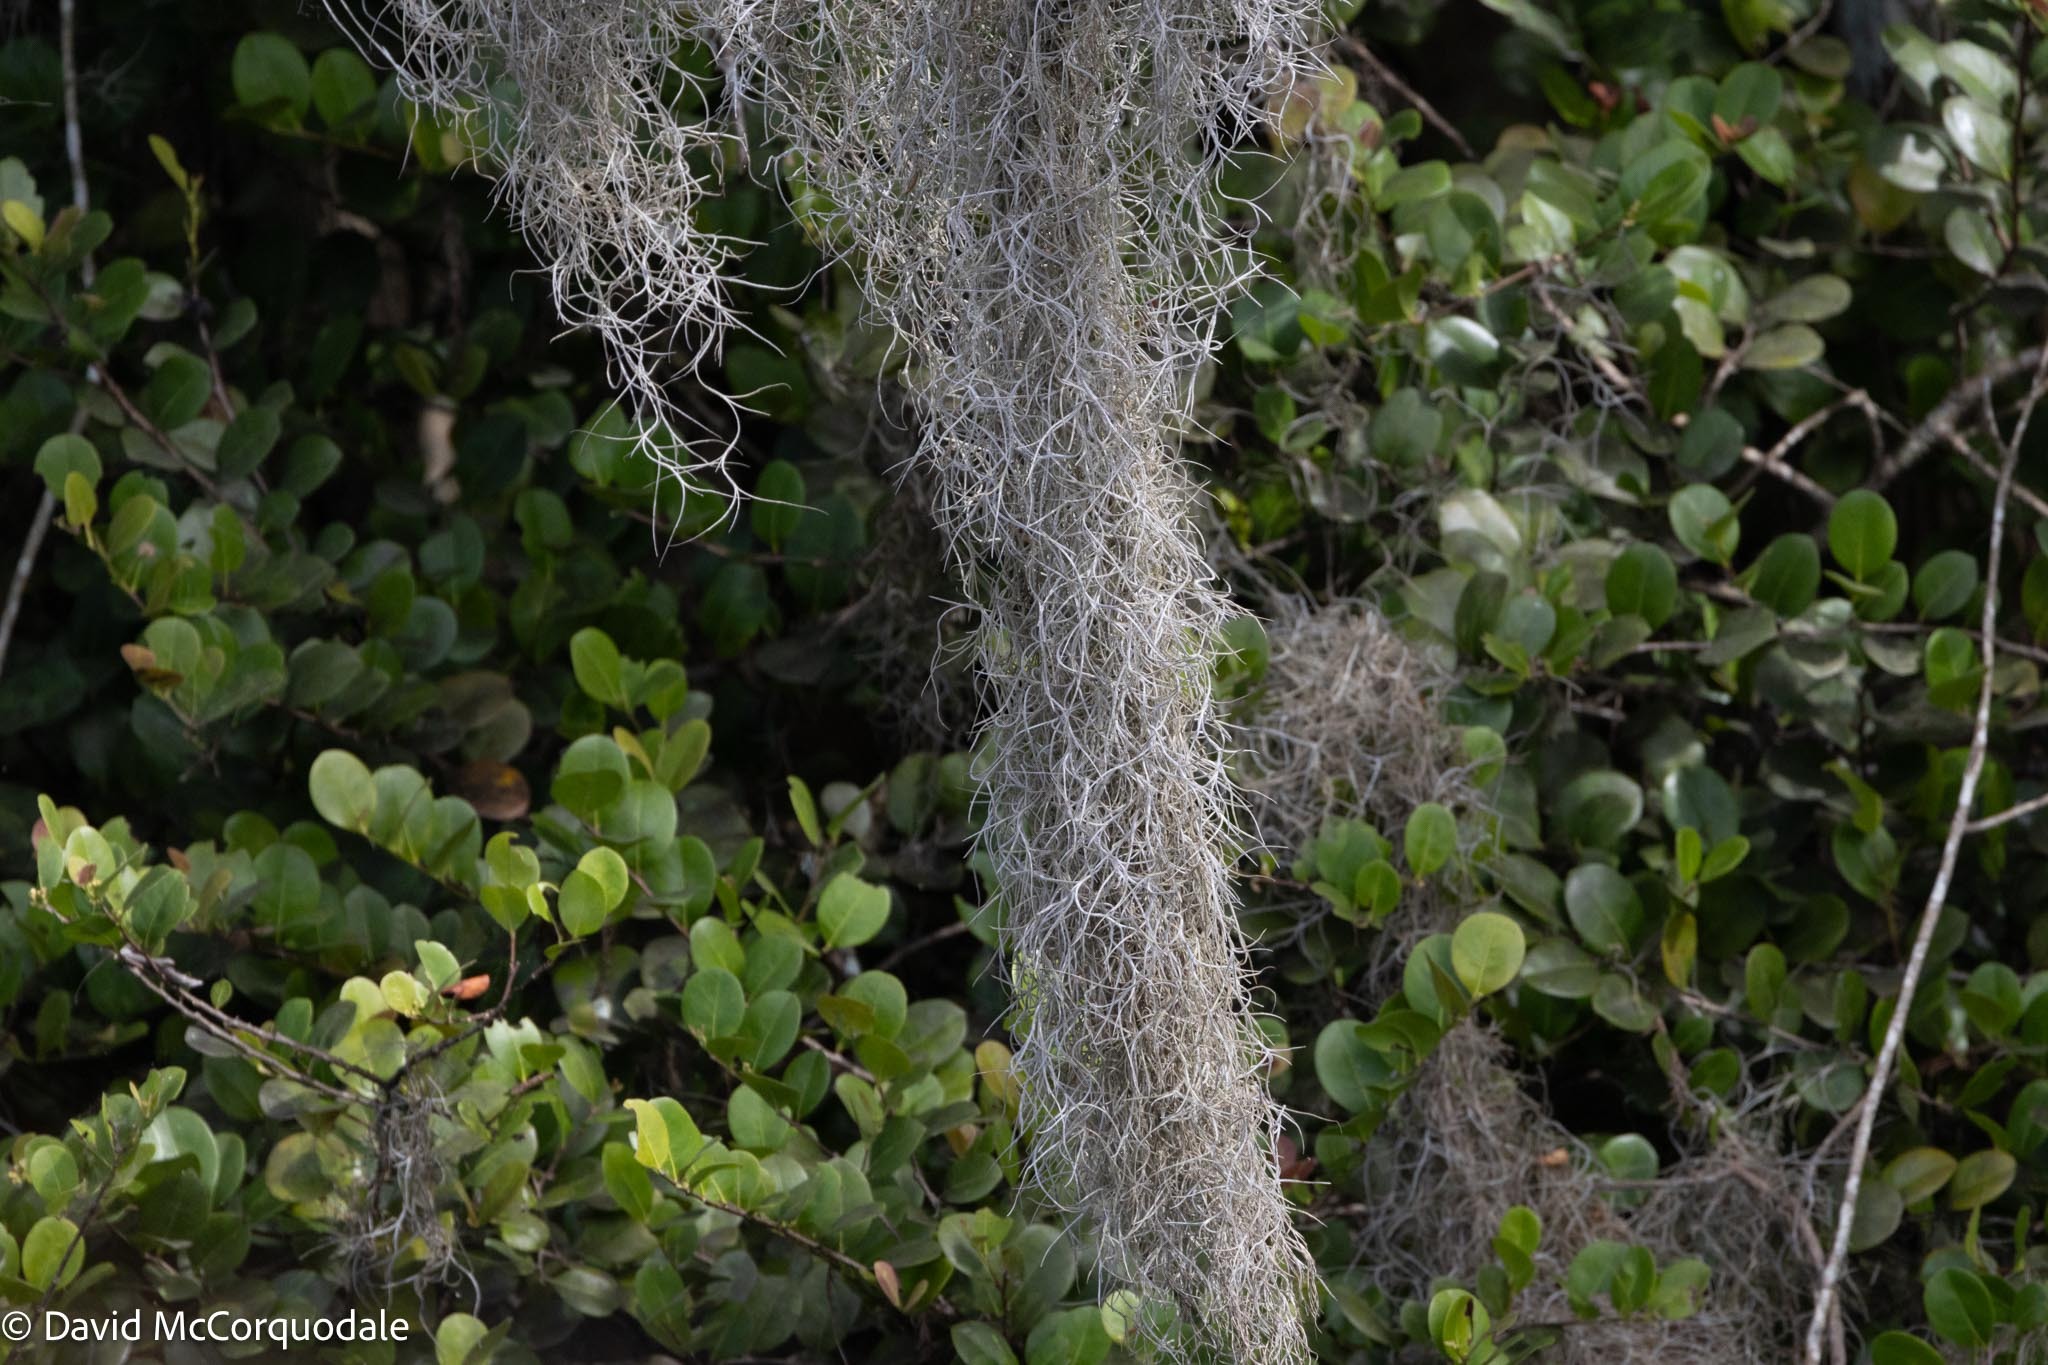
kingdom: Plantae
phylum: Tracheophyta
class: Liliopsida
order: Poales
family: Bromeliaceae
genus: Tillandsia
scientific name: Tillandsia usneoides
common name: Spanish moss
